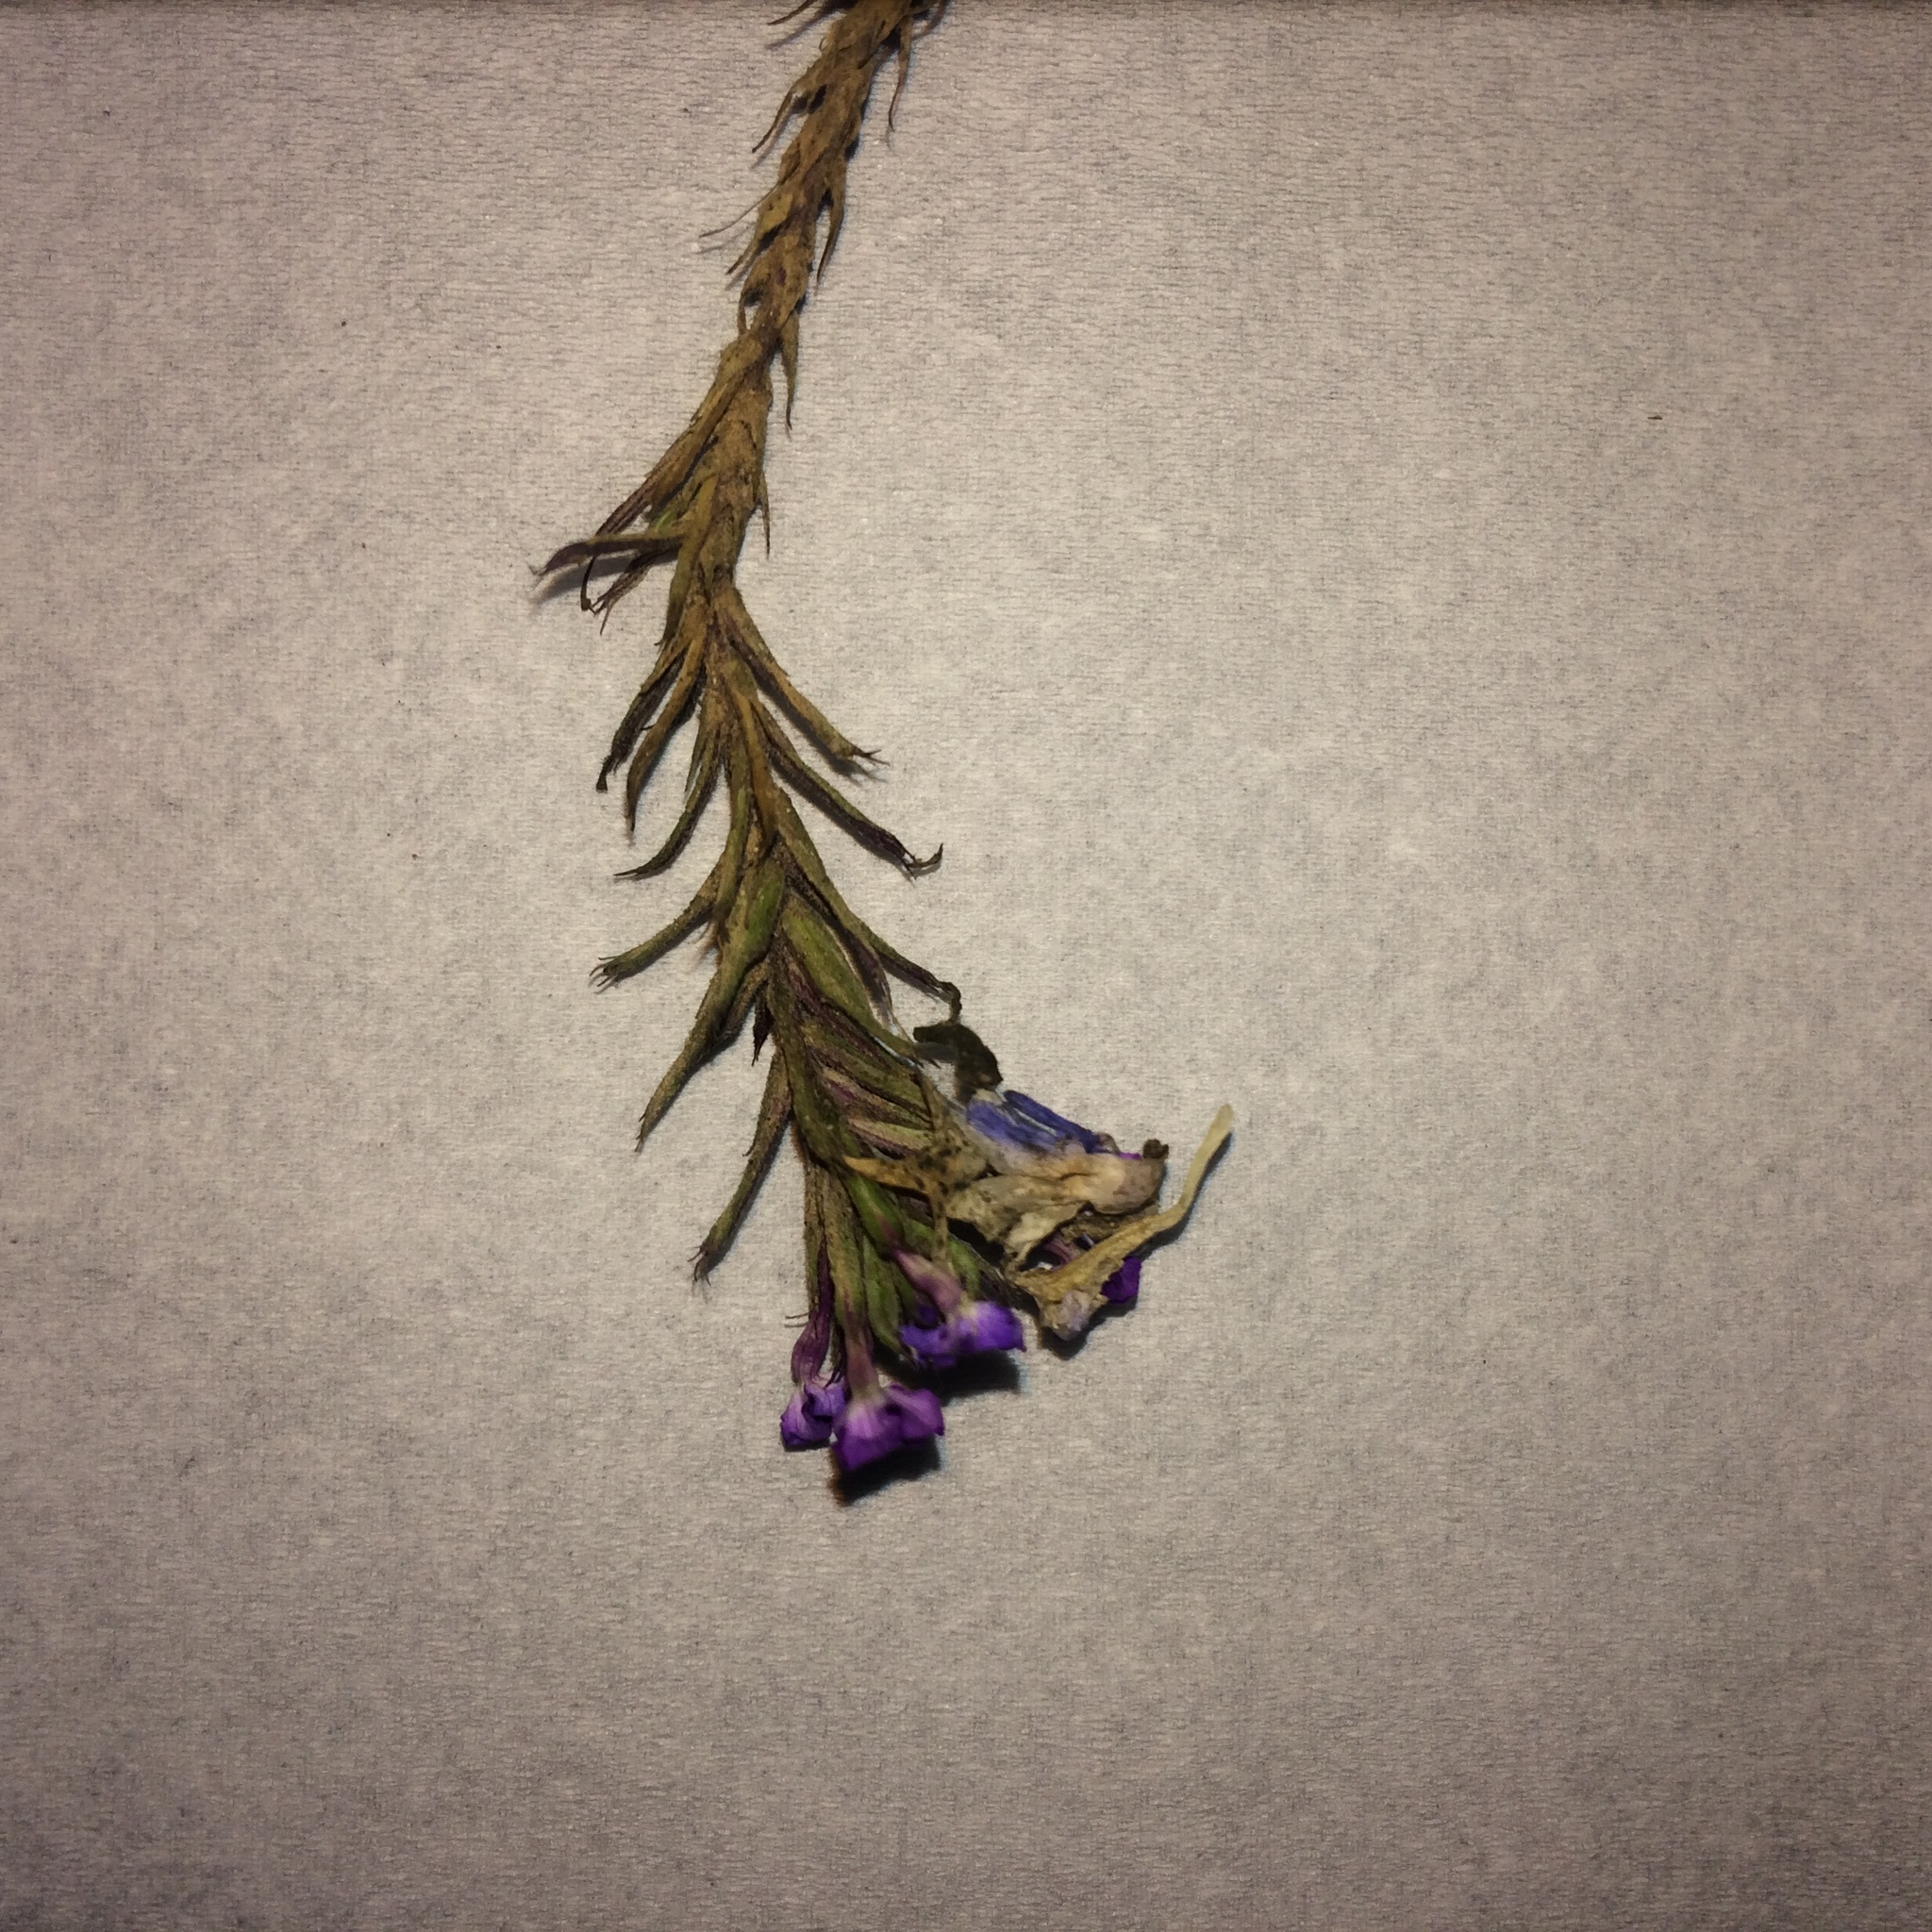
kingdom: Plantae
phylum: Tracheophyta
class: Magnoliopsida
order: Lamiales
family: Verbenaceae
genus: Verbena
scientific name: Verbena aristigera
